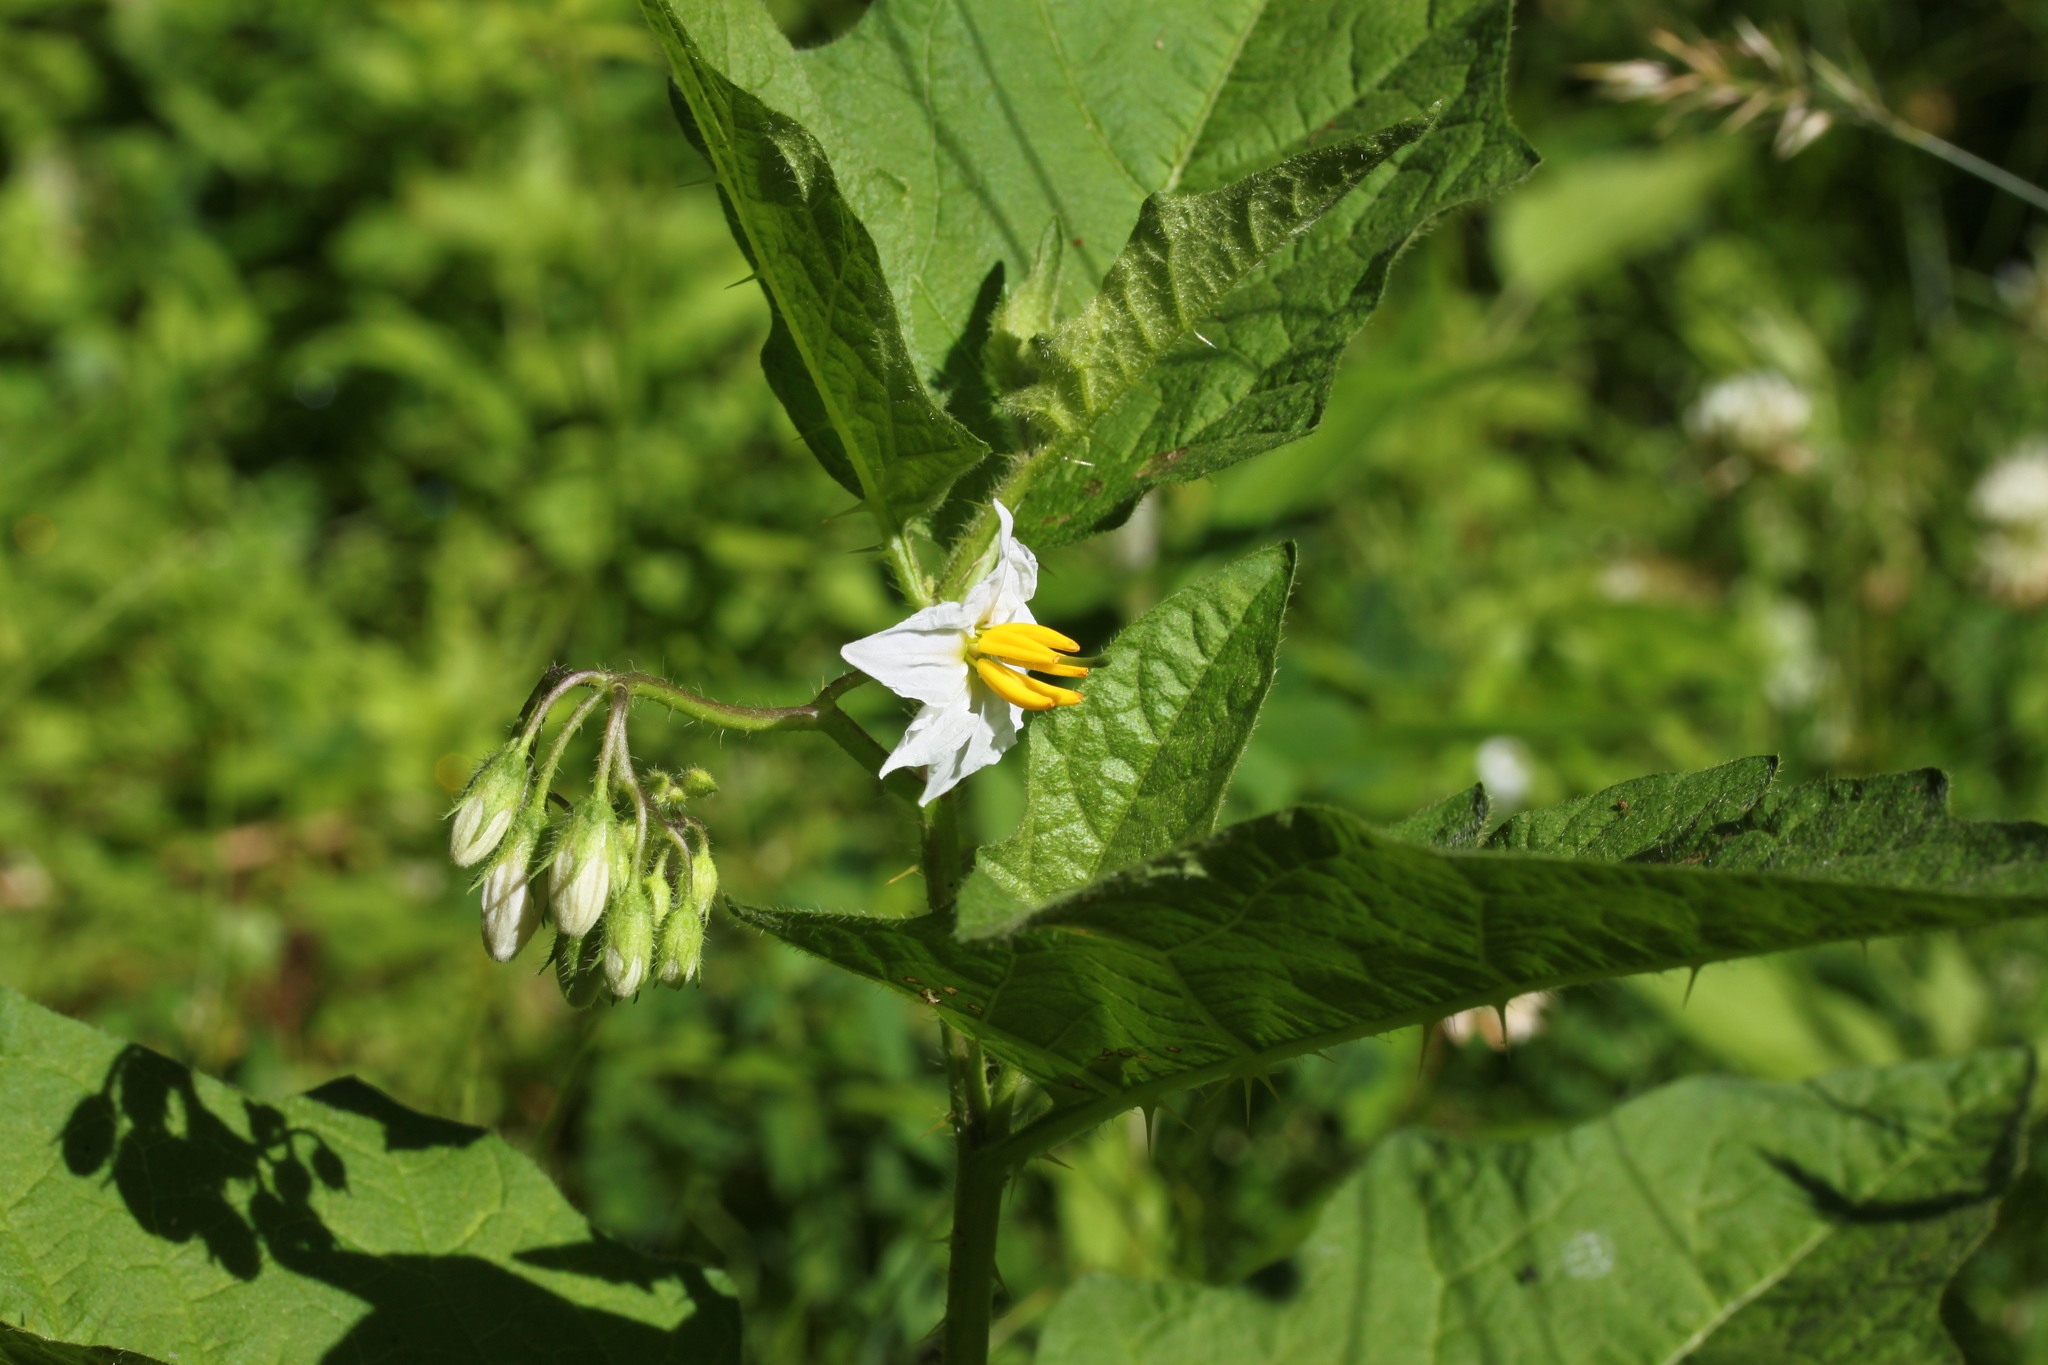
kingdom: Plantae
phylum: Tracheophyta
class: Magnoliopsida
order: Solanales
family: Solanaceae
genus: Solanum
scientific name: Solanum carolinense
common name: Horse-nettle
